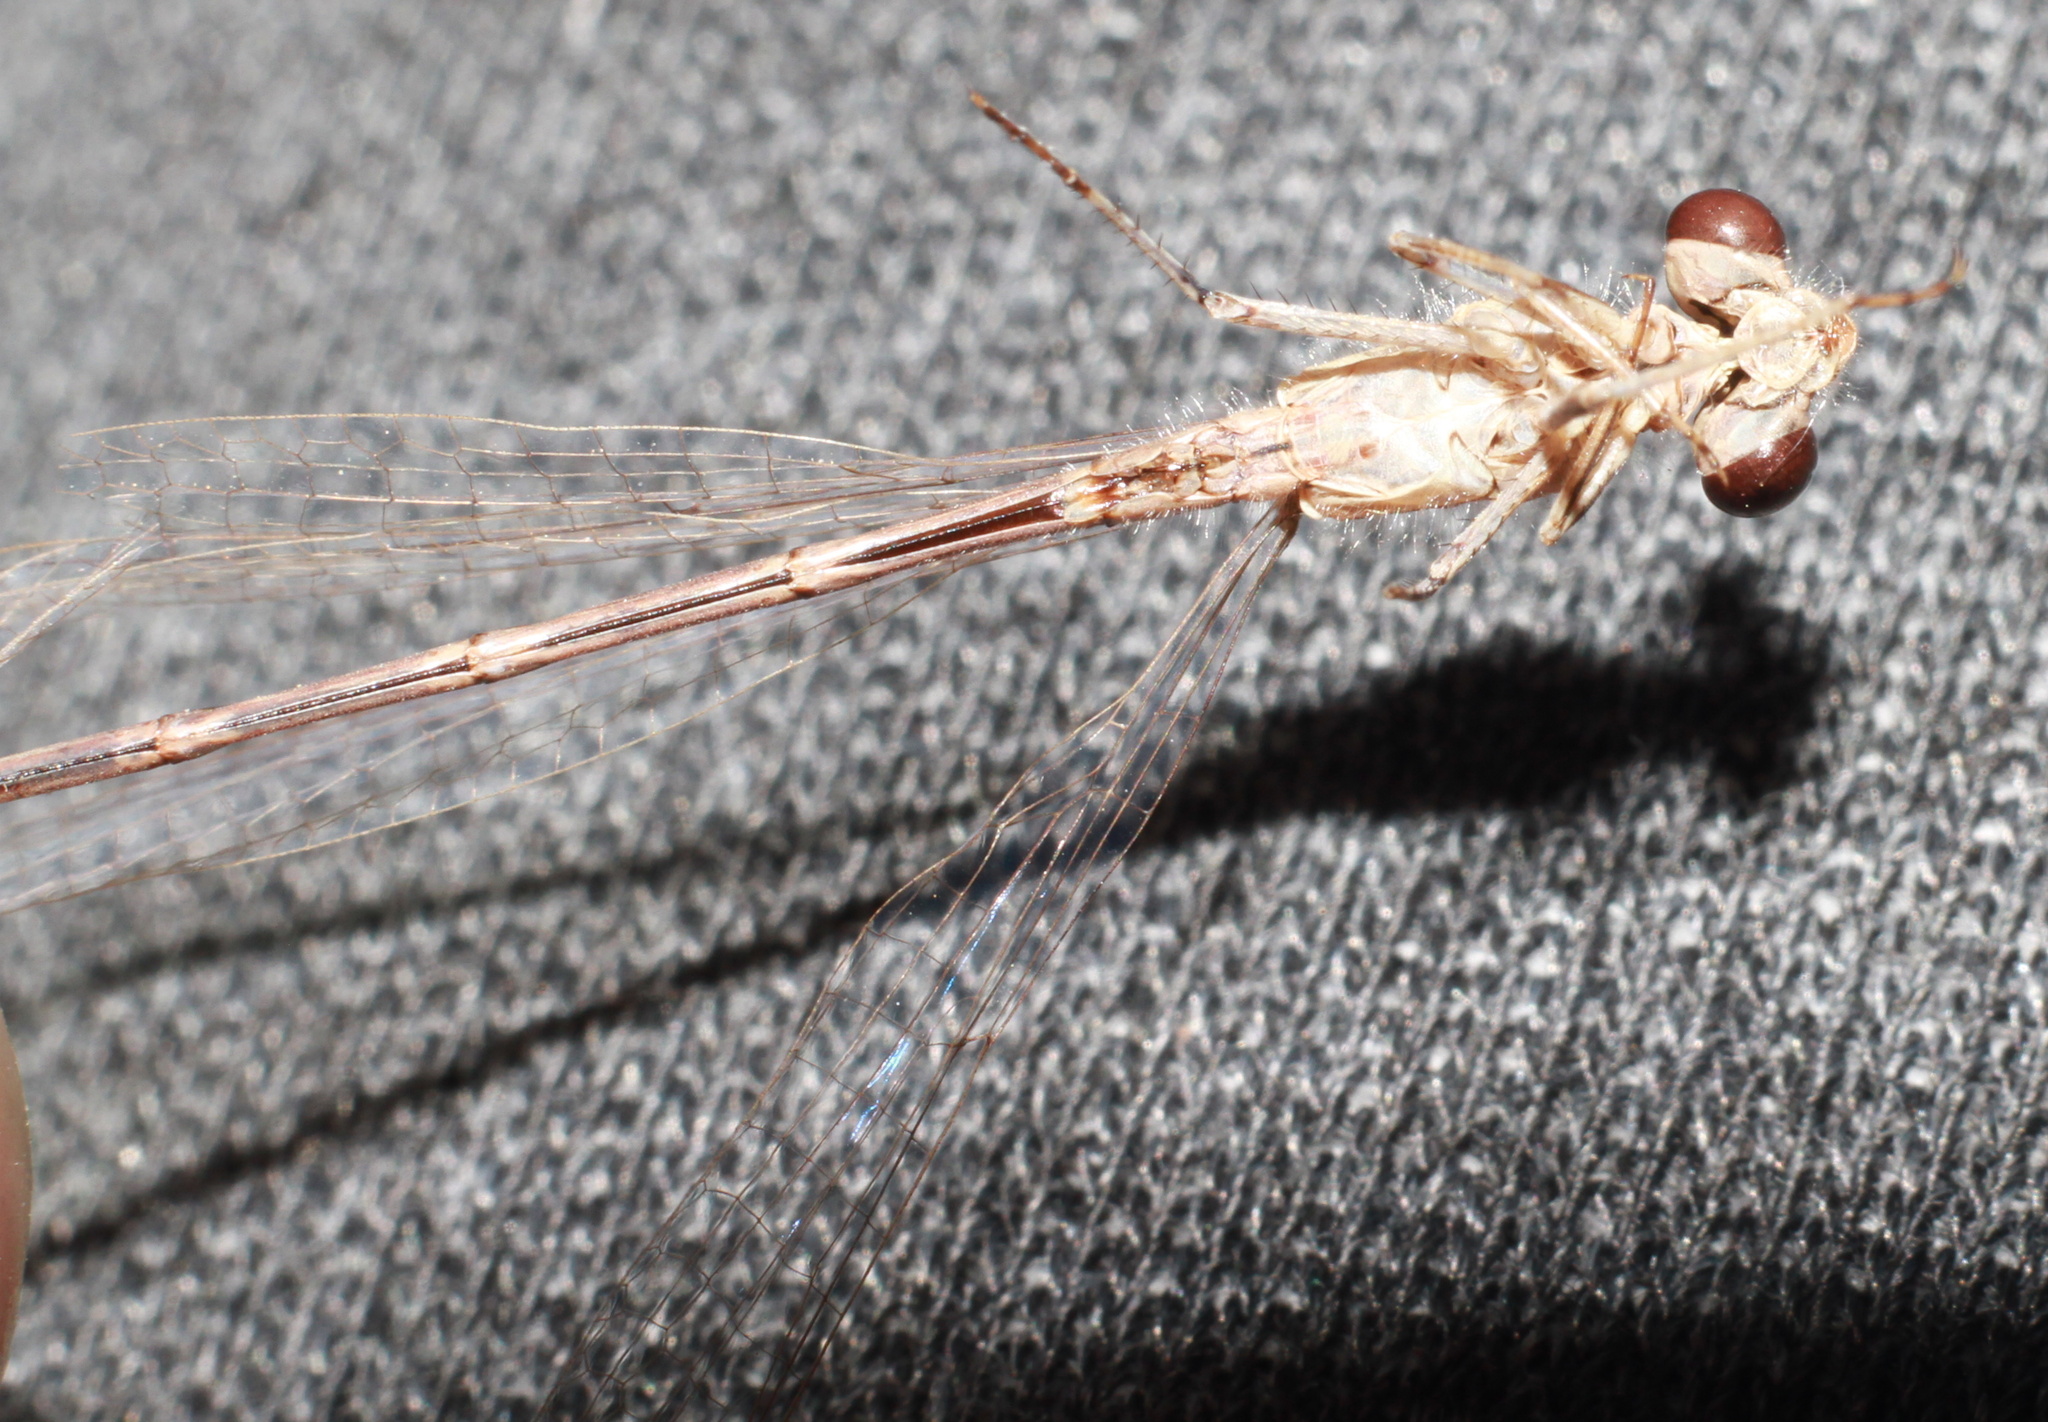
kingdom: Animalia
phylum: Arthropoda
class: Insecta
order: Odonata
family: Coenagrionidae
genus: Enallagma
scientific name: Enallagma cyathigerum
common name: Common blue damselfly
